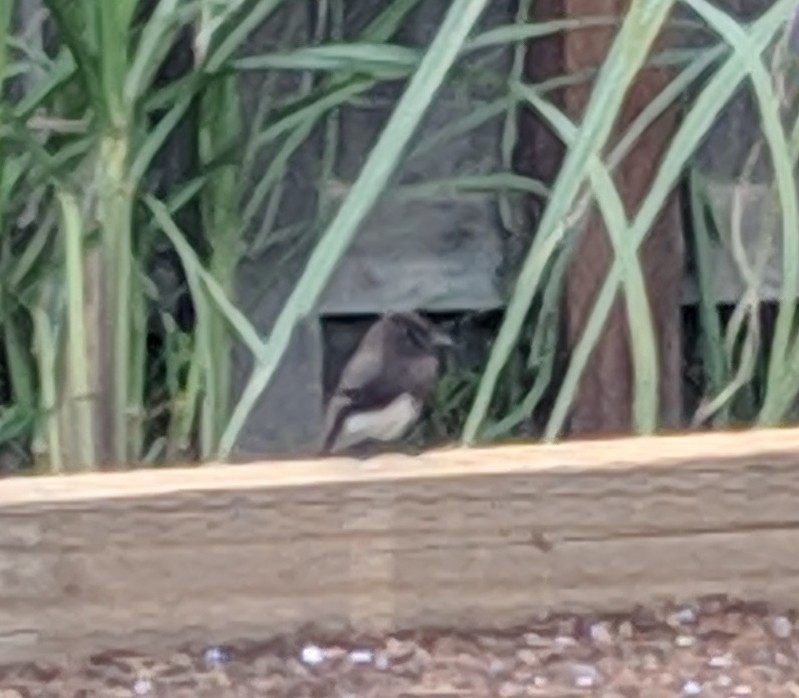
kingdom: Animalia
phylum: Chordata
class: Aves
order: Passeriformes
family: Tyrannidae
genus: Sayornis
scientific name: Sayornis nigricans
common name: Black phoebe
